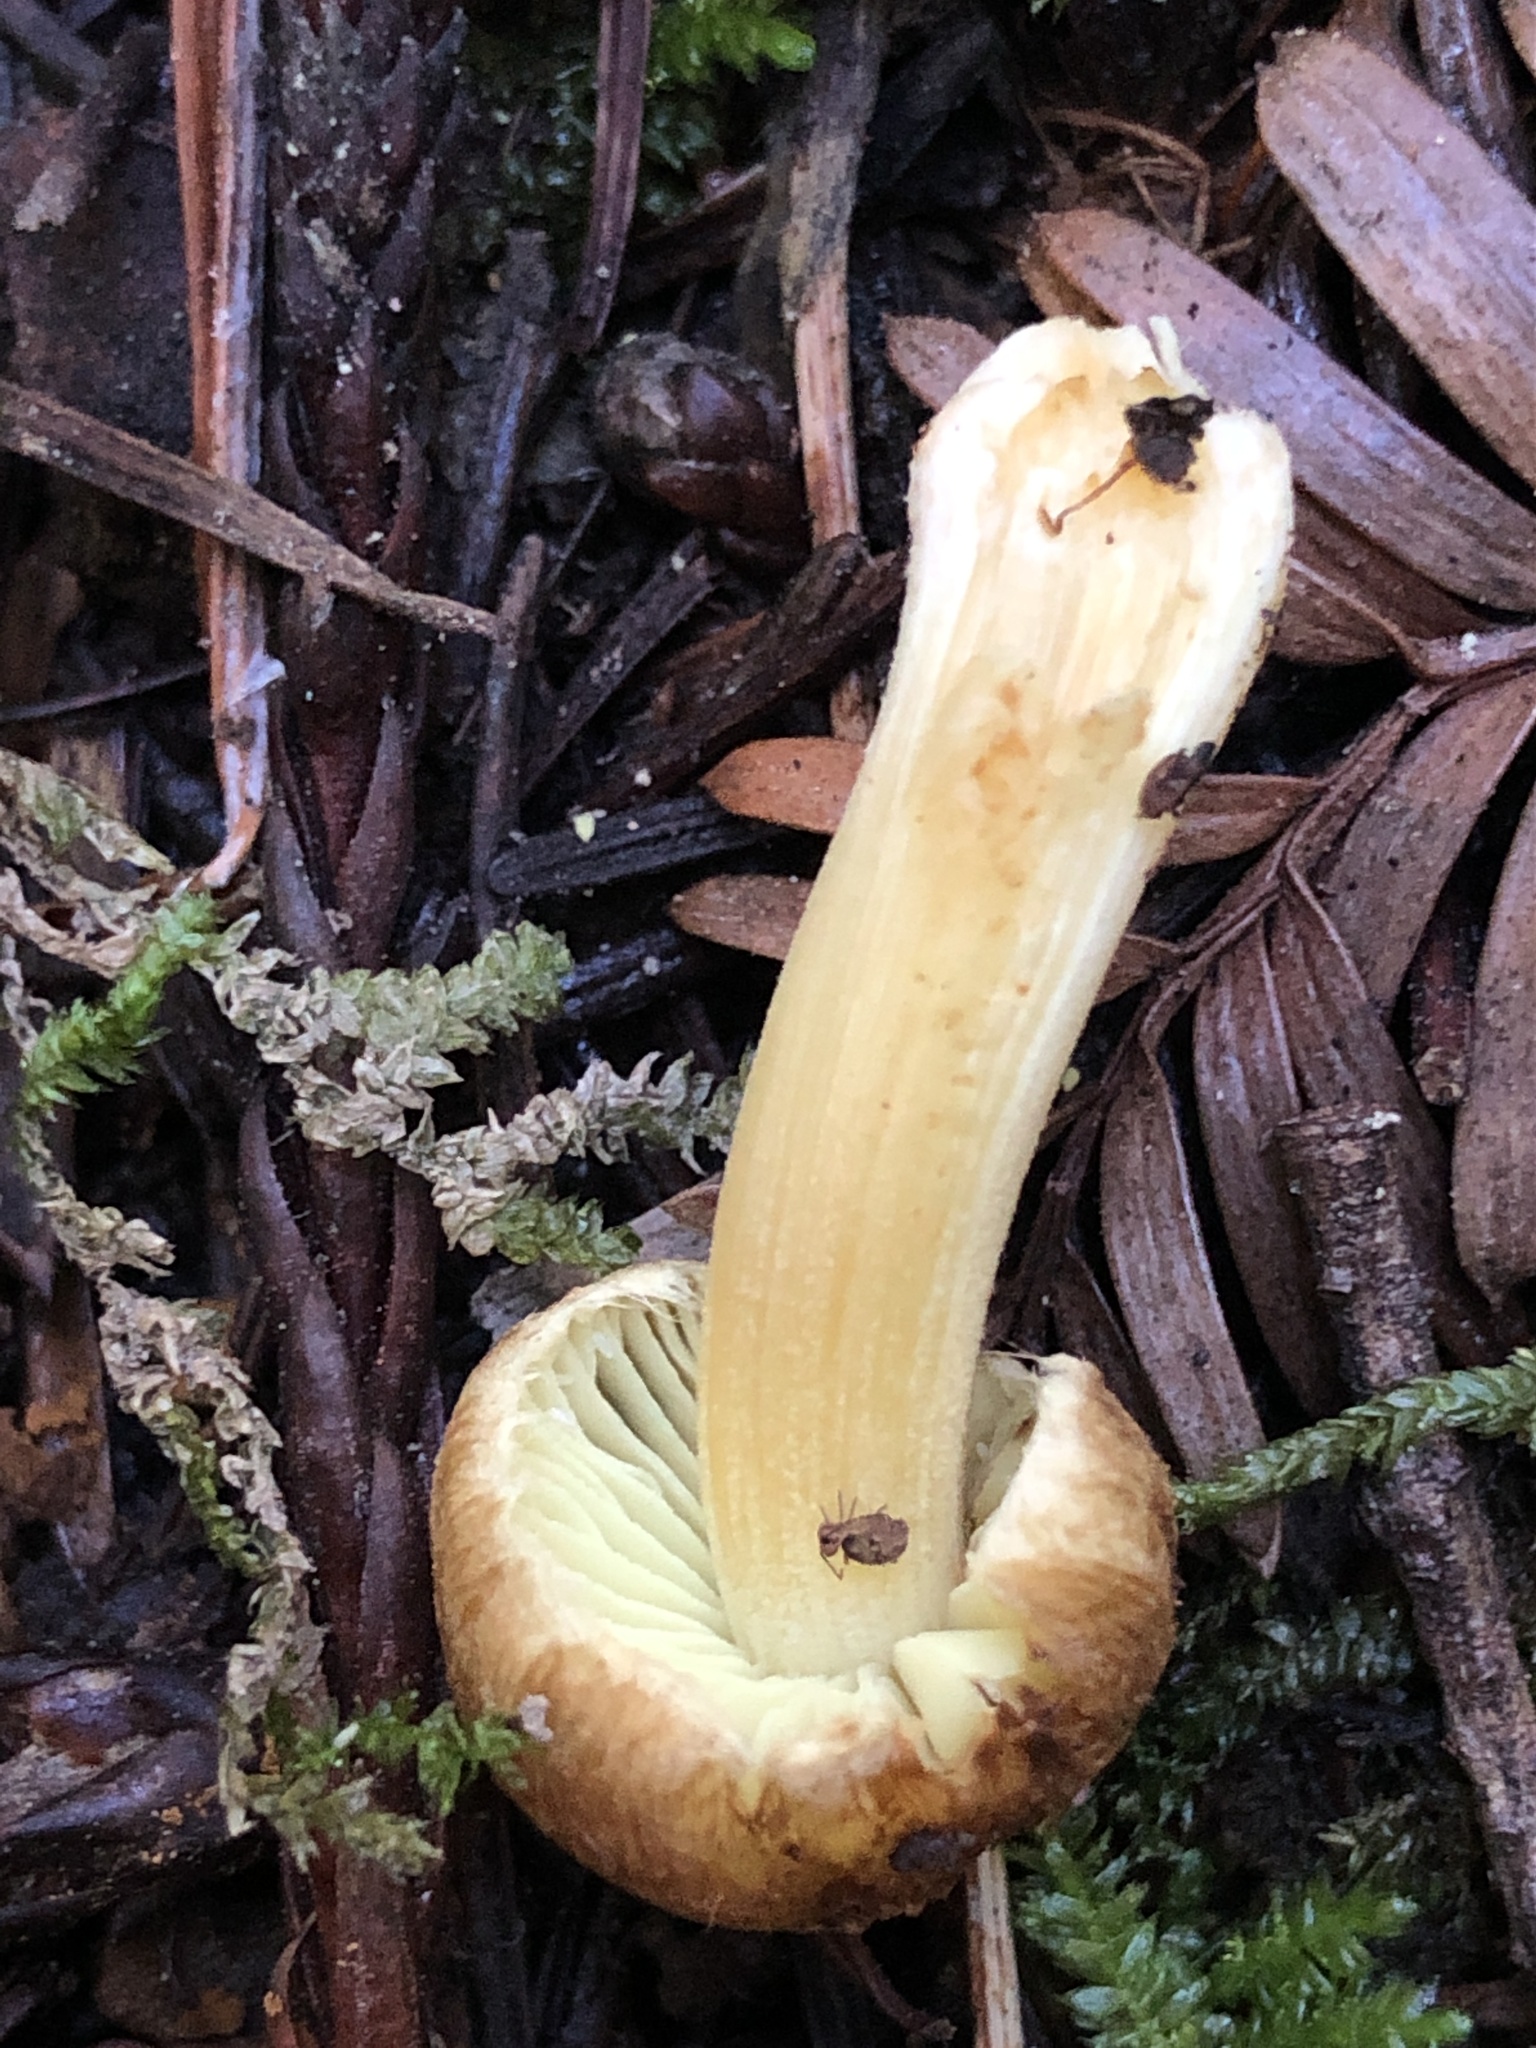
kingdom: Fungi
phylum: Basidiomycota
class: Agaricomycetes
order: Agaricales
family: Inocybaceae
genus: Inocybe
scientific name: Inocybe mycenoides
